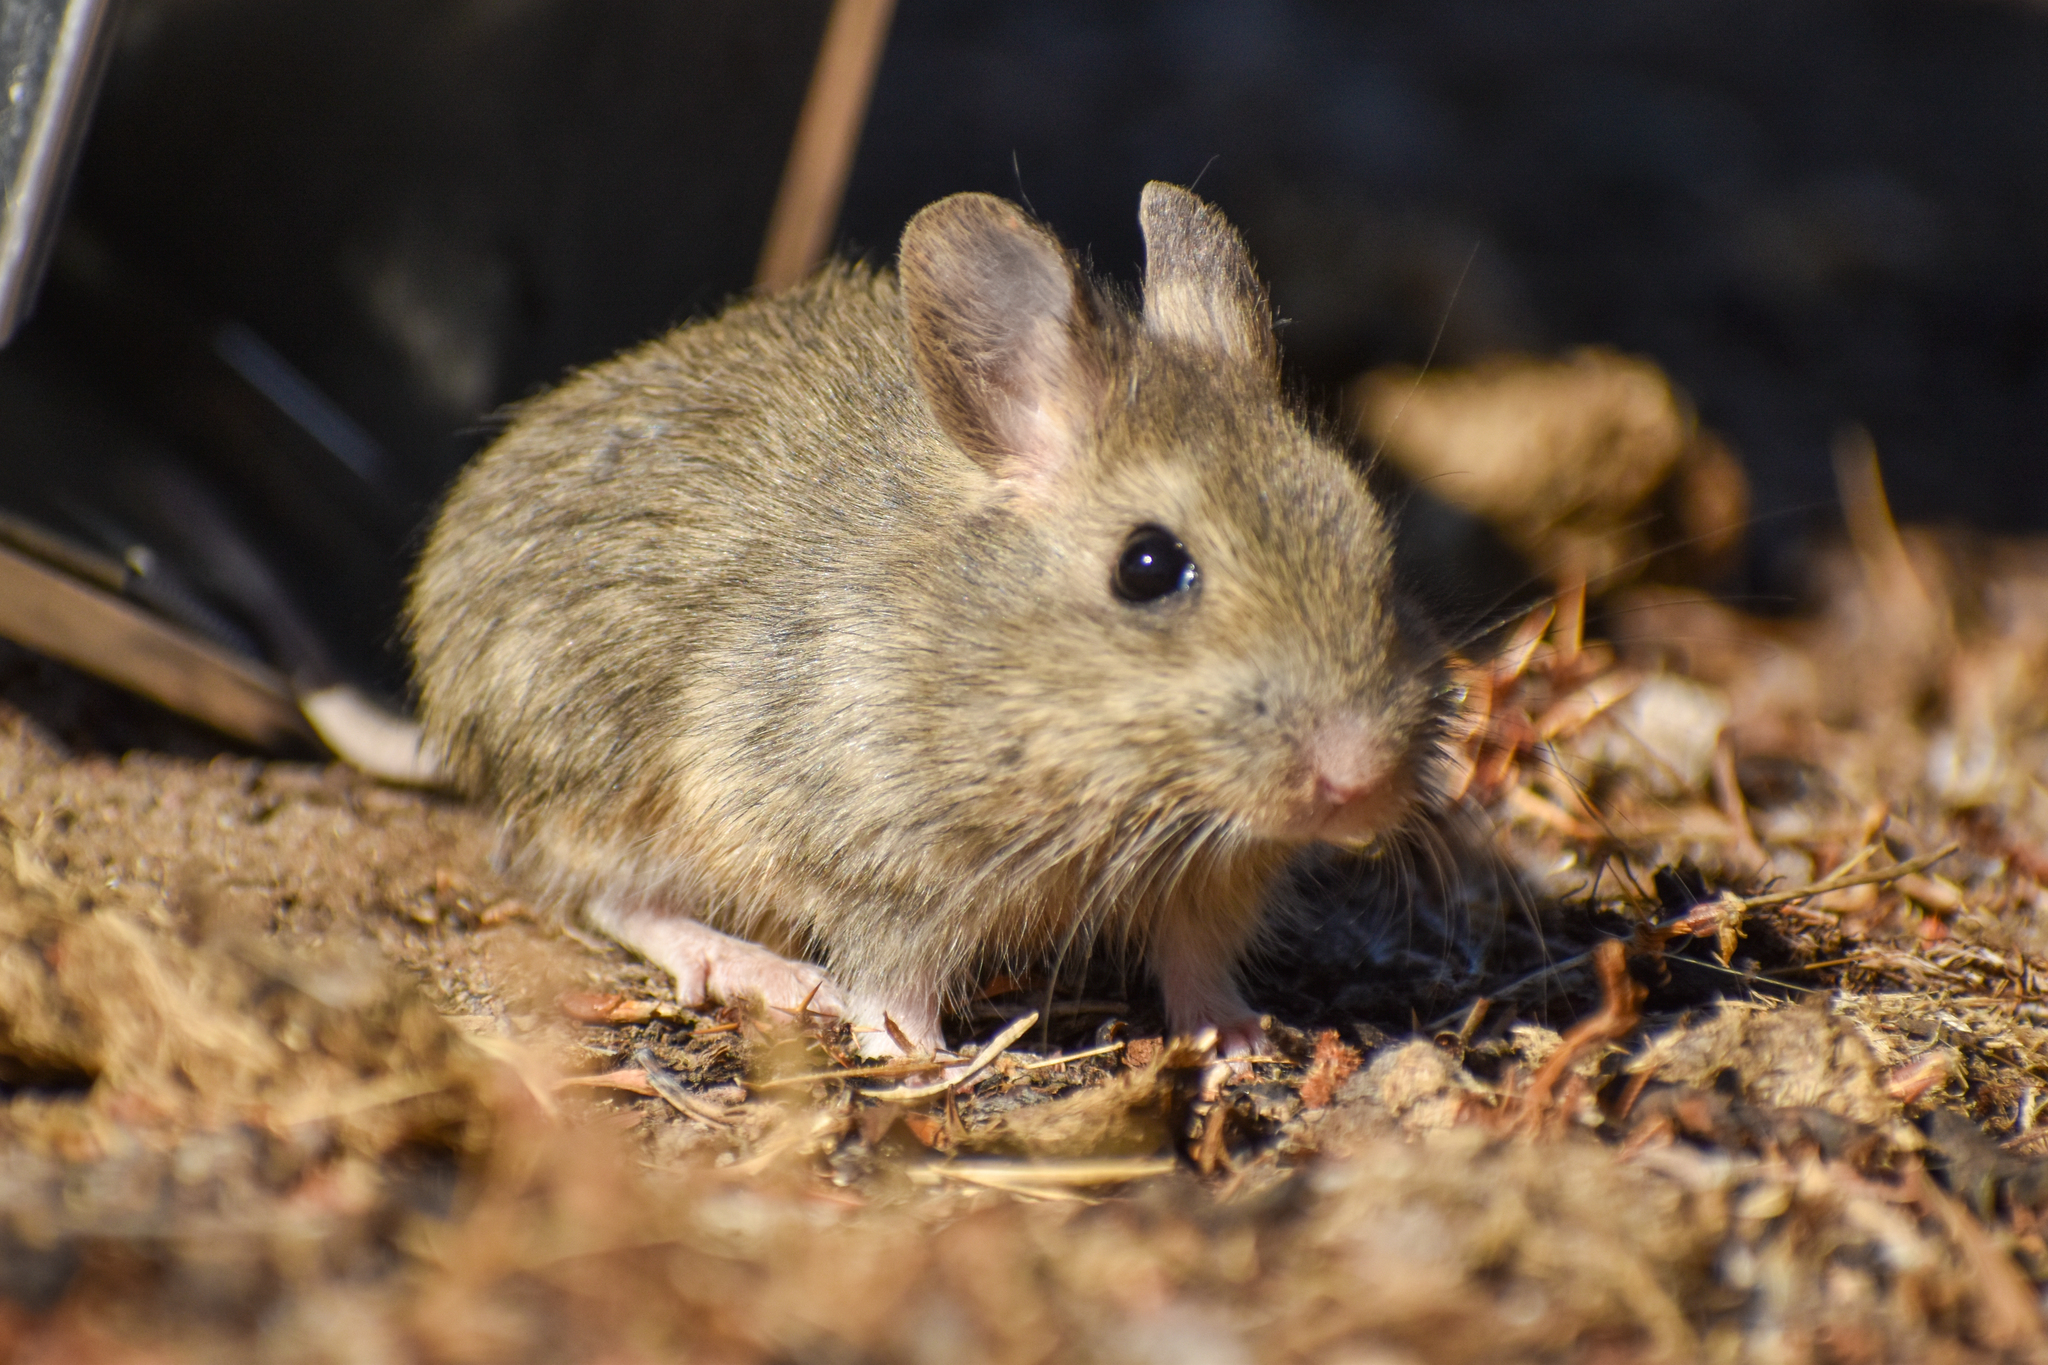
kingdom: Animalia
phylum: Chordata
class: Mammalia
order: Rodentia
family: Cricetidae
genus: Euneomys
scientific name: Euneomys chinchilloides
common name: Tierra del fuego euneomys
